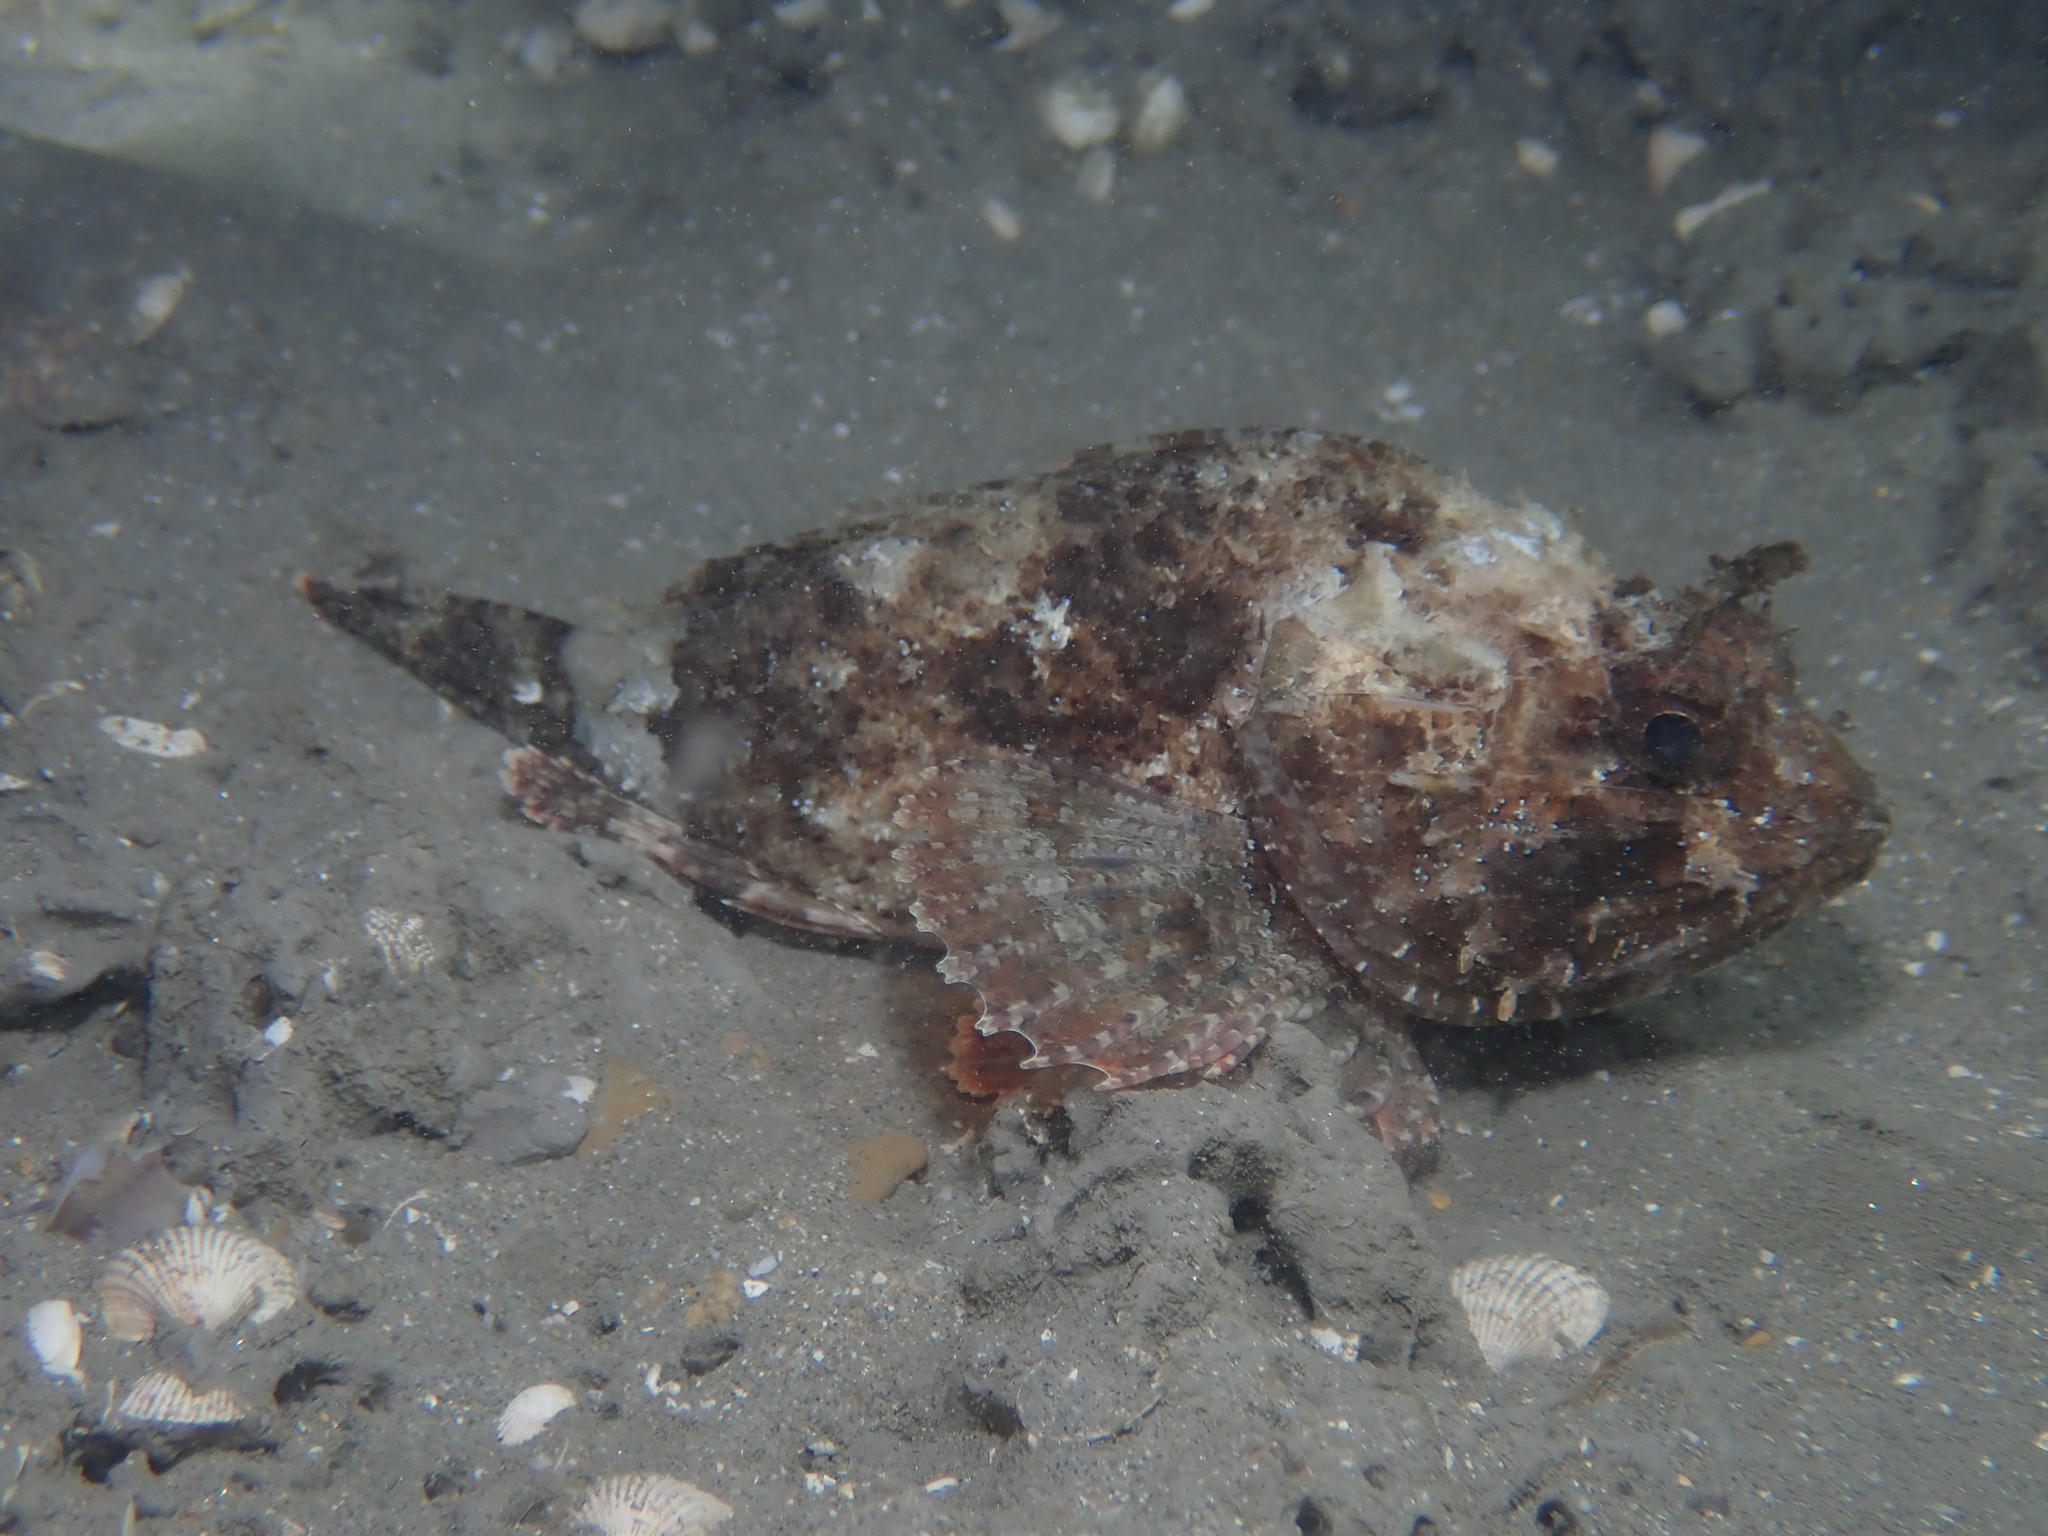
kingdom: Animalia
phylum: Chordata
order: Scorpaeniformes
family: Scorpaenidae
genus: Scorpaena
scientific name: Scorpaena porcus
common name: Black scorpionfish
